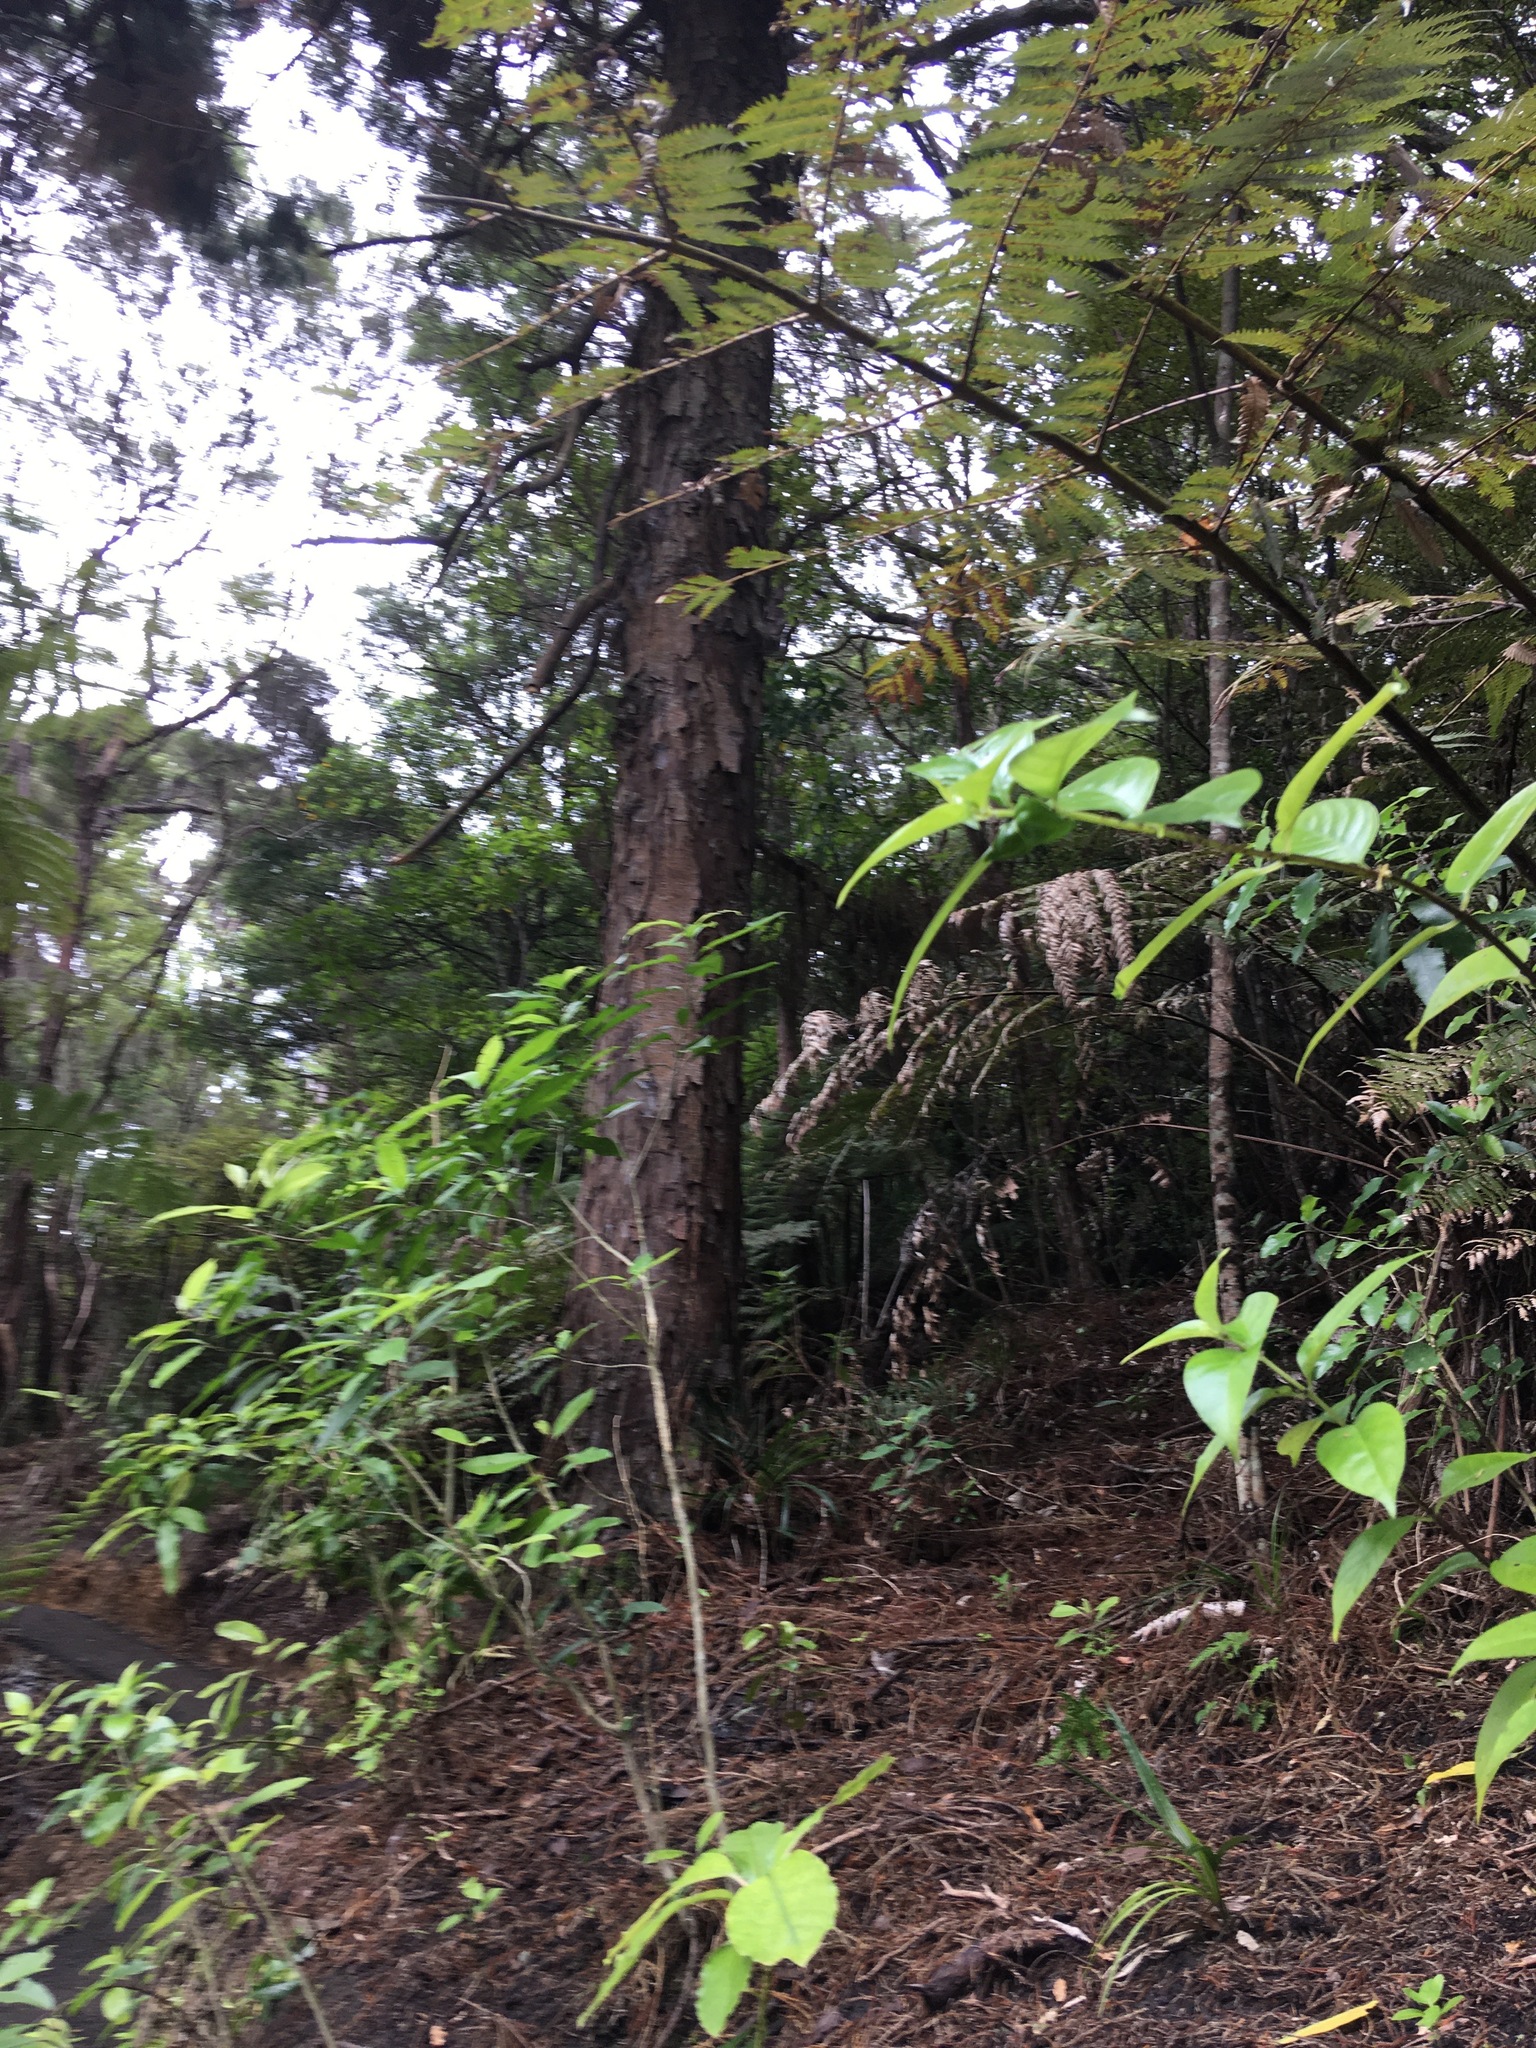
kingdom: Plantae
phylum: Tracheophyta
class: Pinopsida
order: Pinales
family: Podocarpaceae
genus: Dacrydium
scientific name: Dacrydium cupressinum
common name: Red pine
